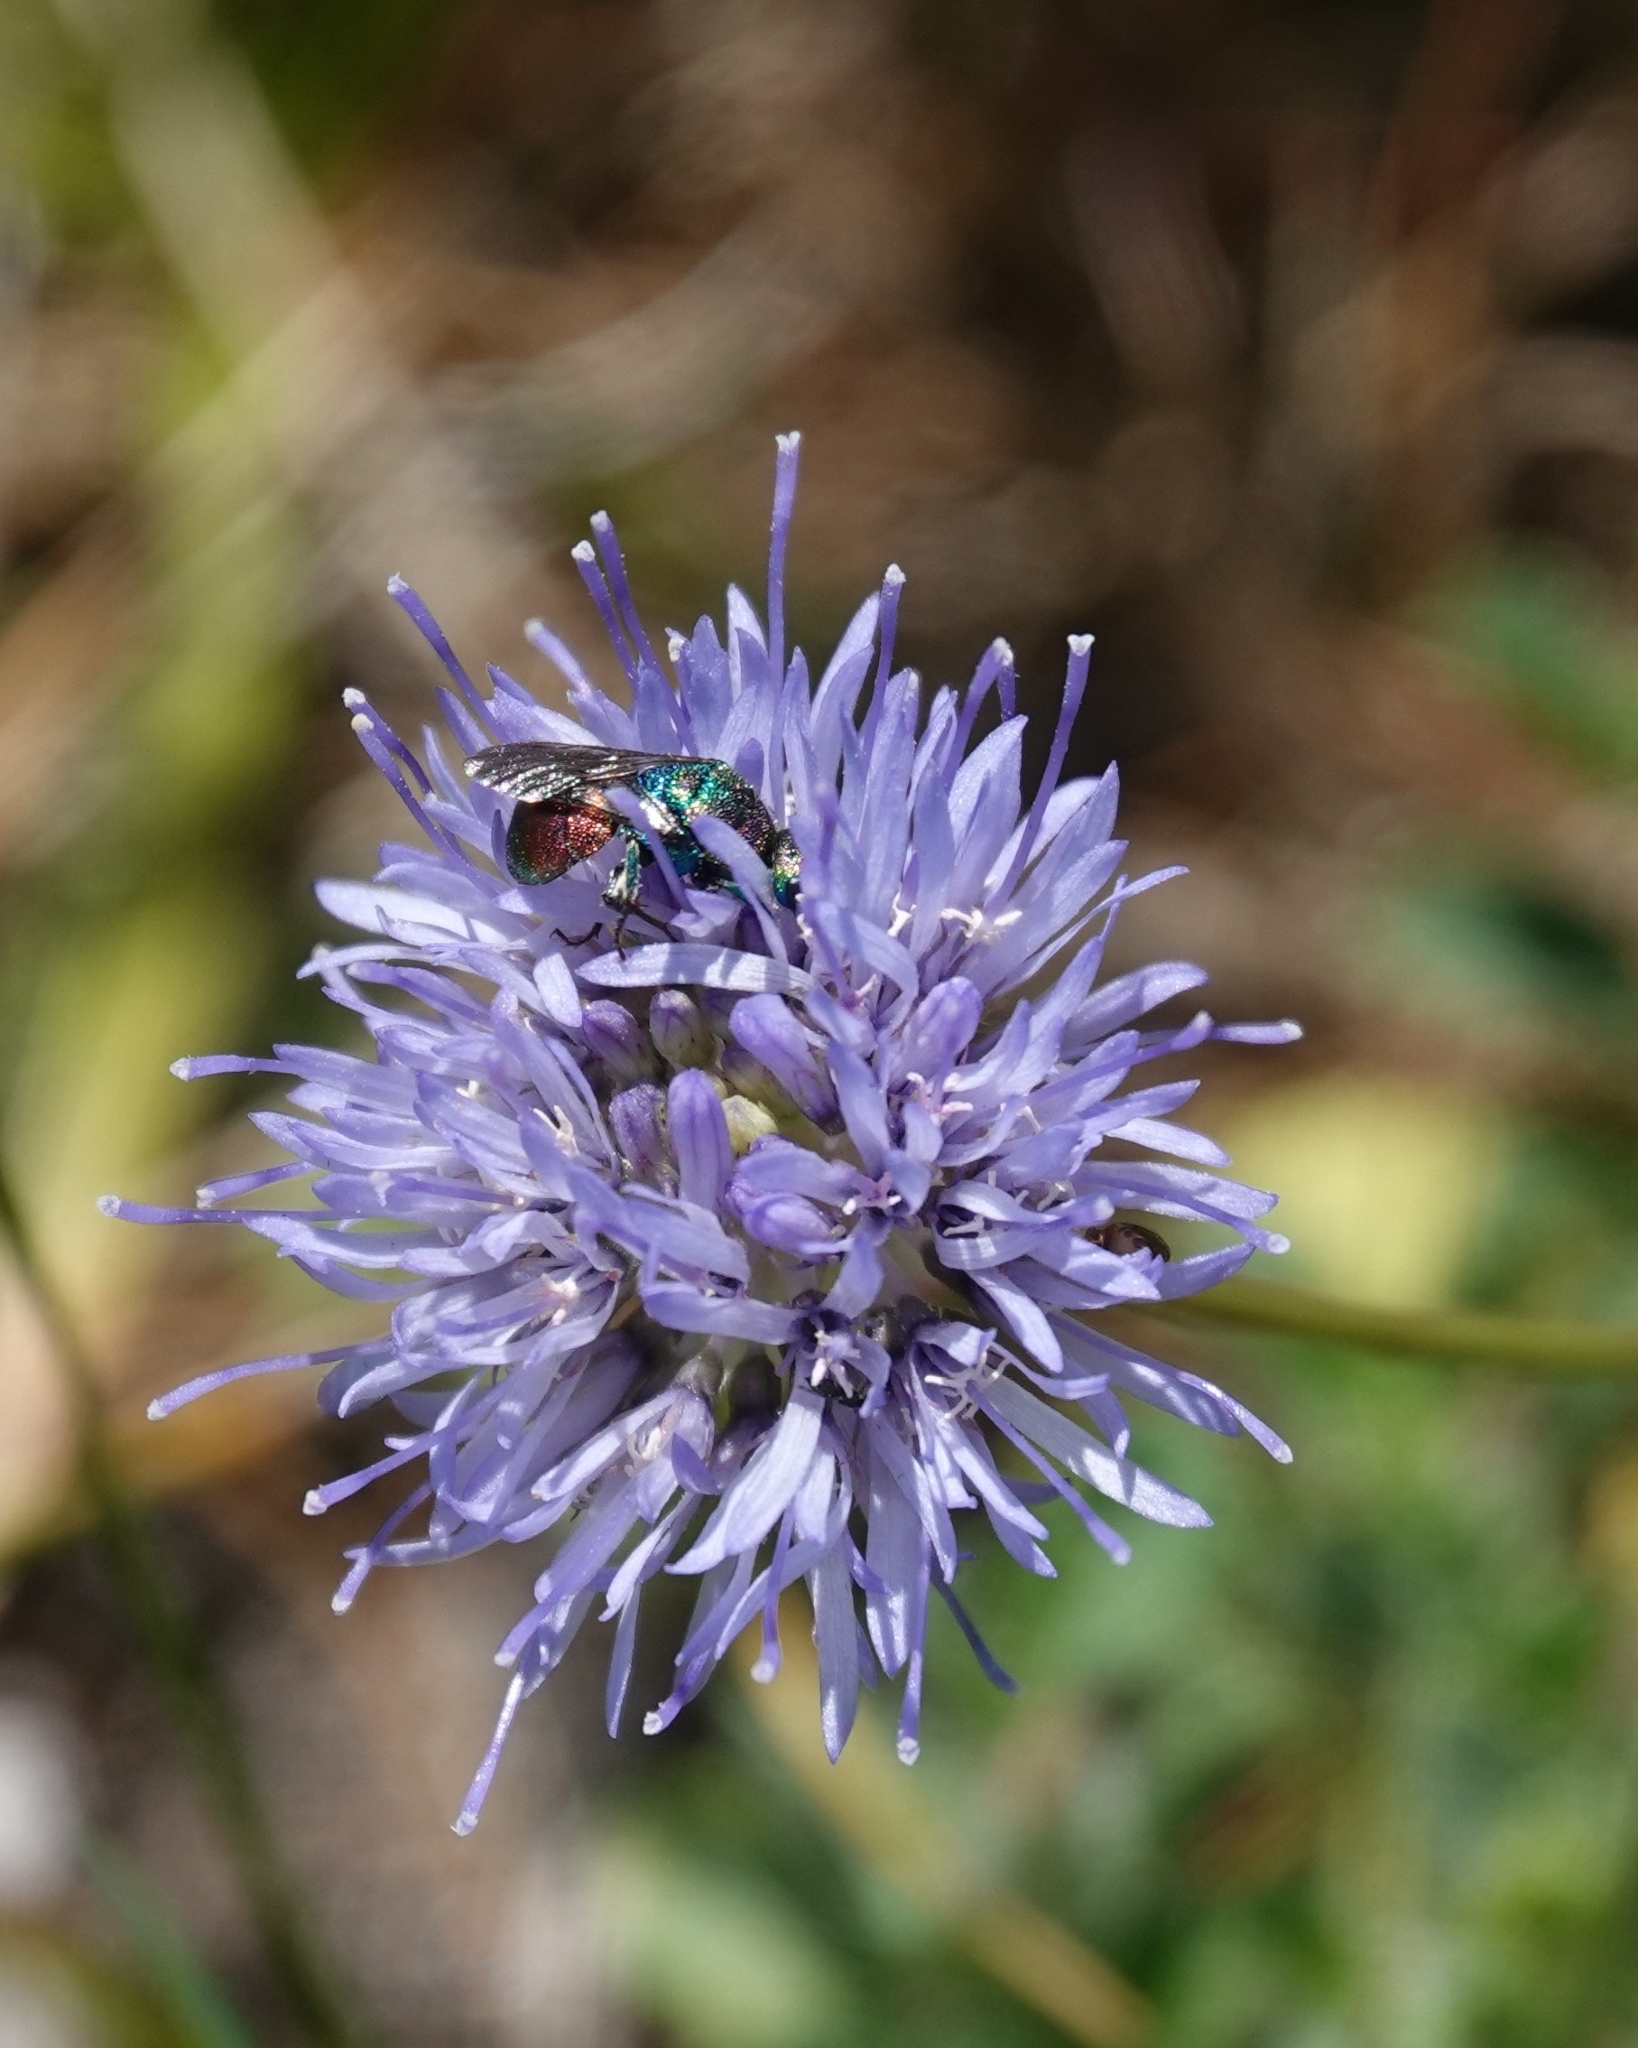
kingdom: Animalia
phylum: Arthropoda
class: Insecta
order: Hymenoptera
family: Chrysididae
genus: Hedychrum
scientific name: Hedychrum rutilans
